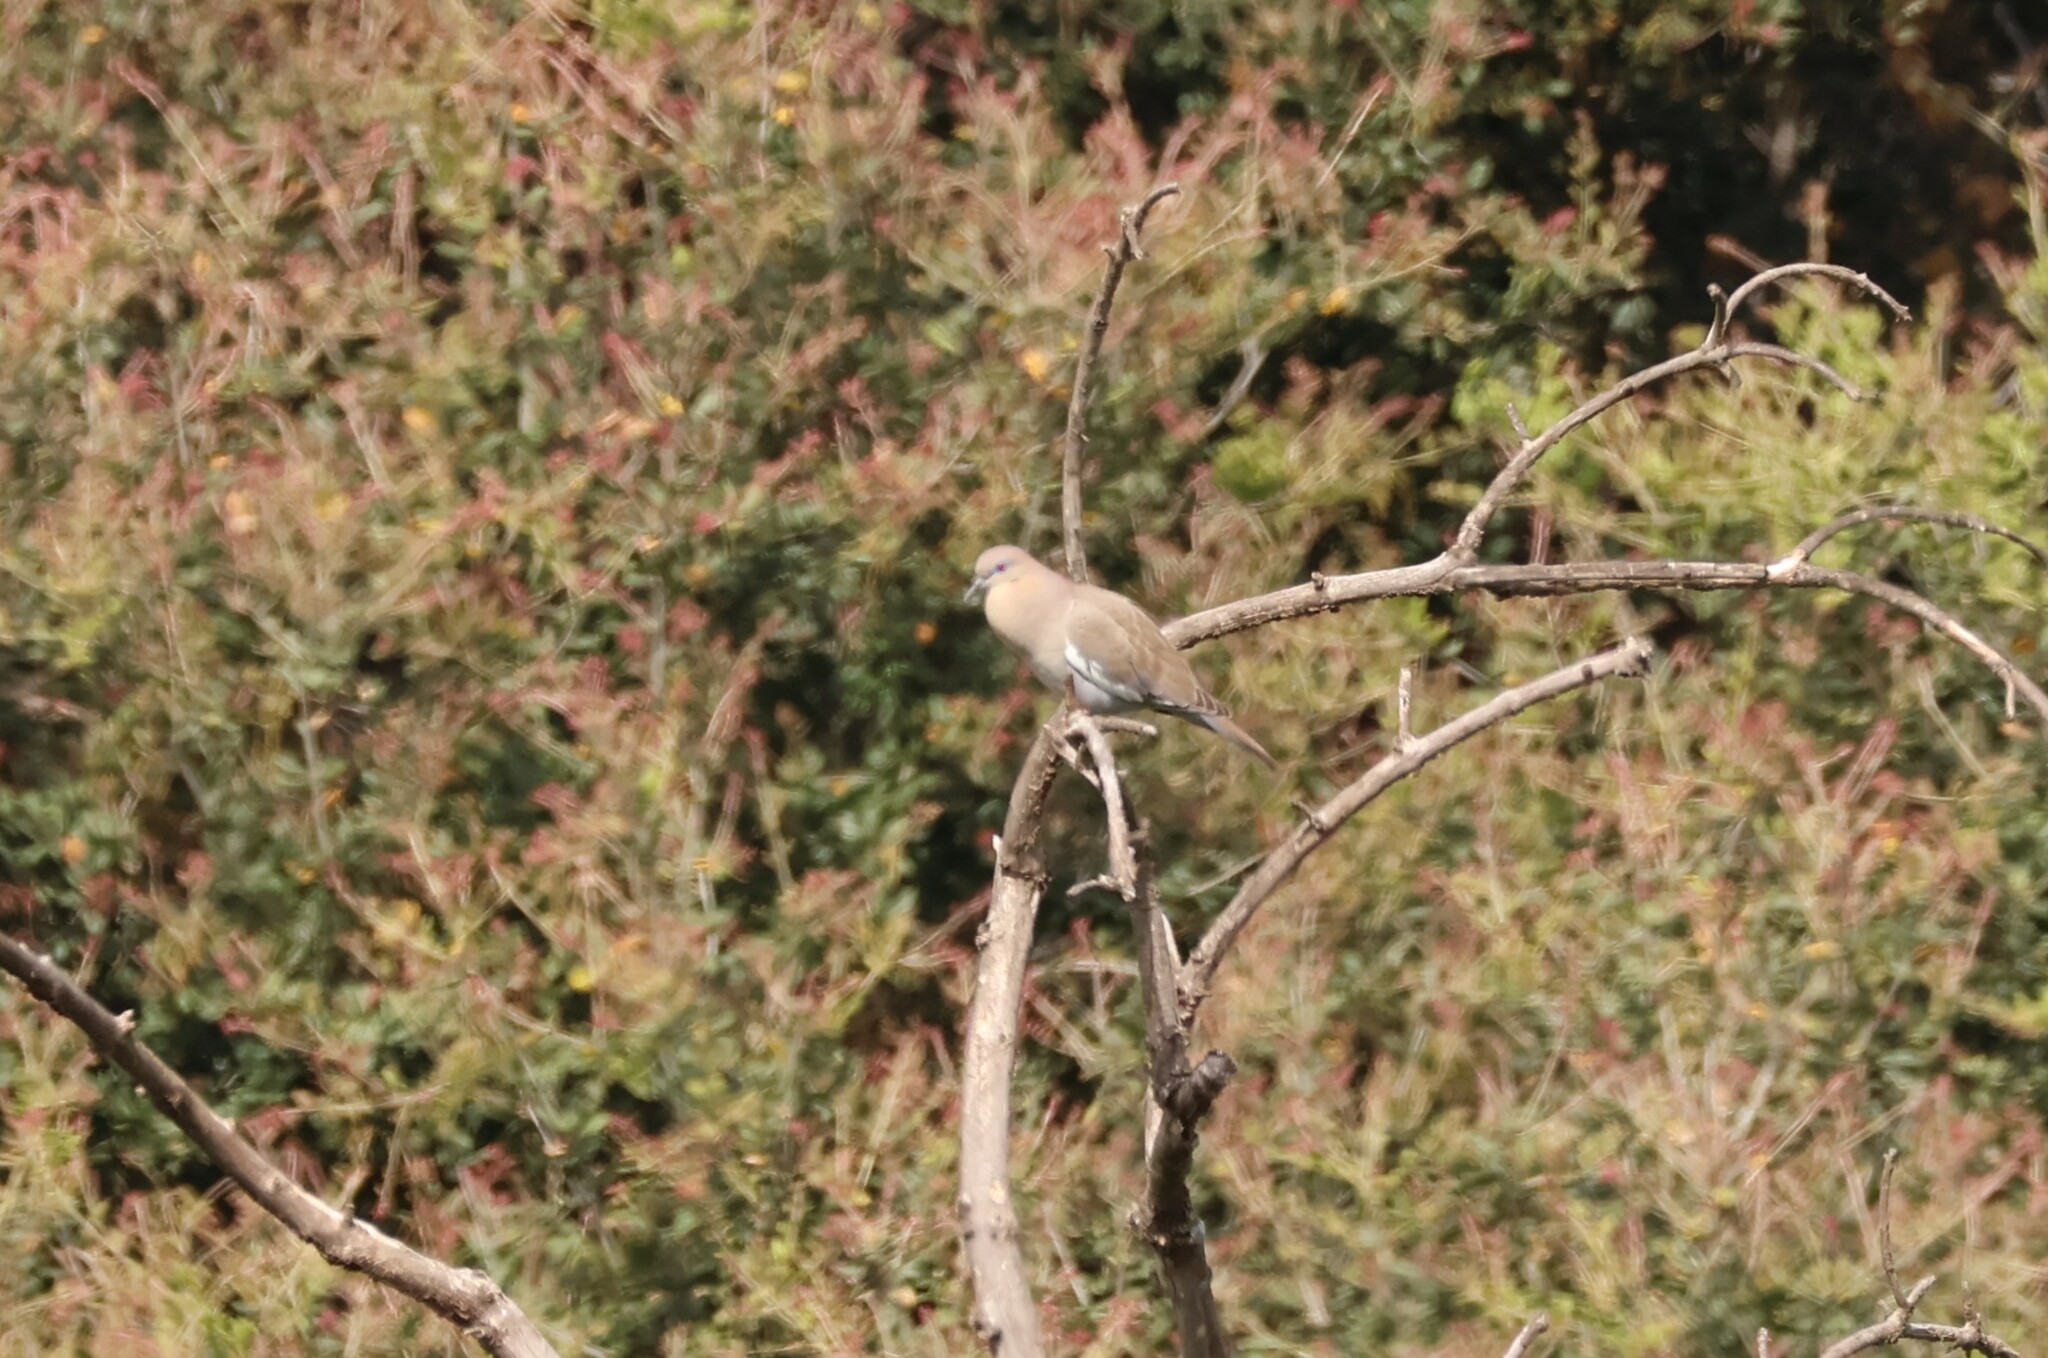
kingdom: Animalia
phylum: Chordata
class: Aves
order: Columbiformes
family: Columbidae
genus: Zenaida
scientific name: Zenaida asiatica
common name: White-winged dove
